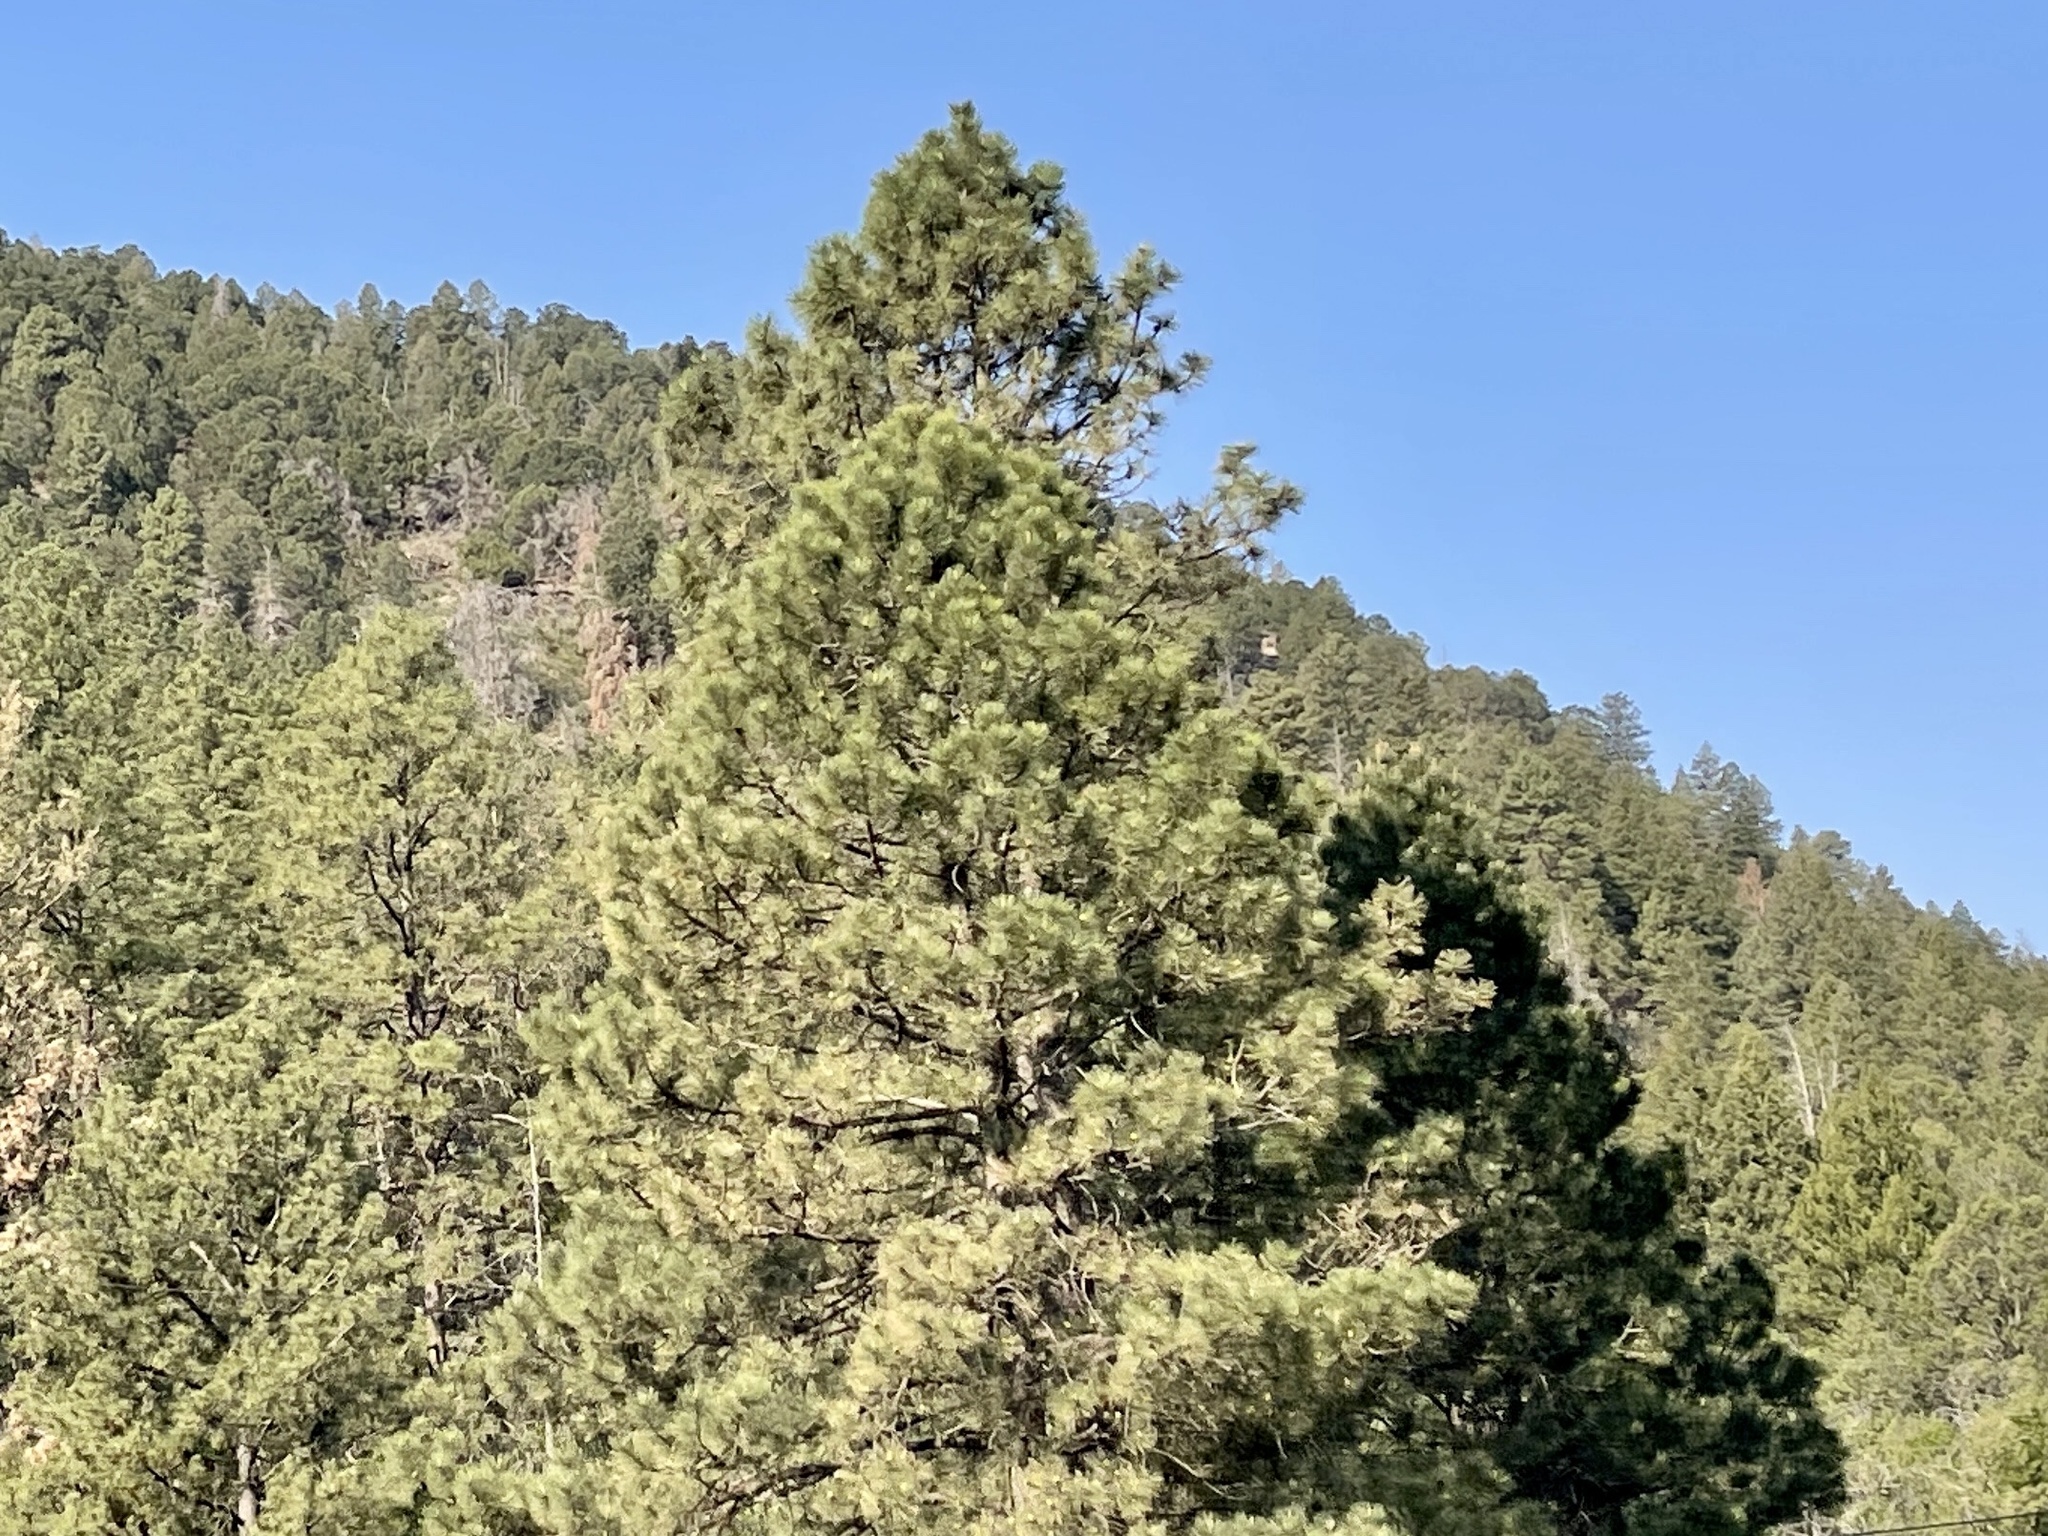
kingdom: Plantae
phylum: Tracheophyta
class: Pinopsida
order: Pinales
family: Pinaceae
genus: Pinus
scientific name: Pinus ponderosa
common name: Western yellow-pine
